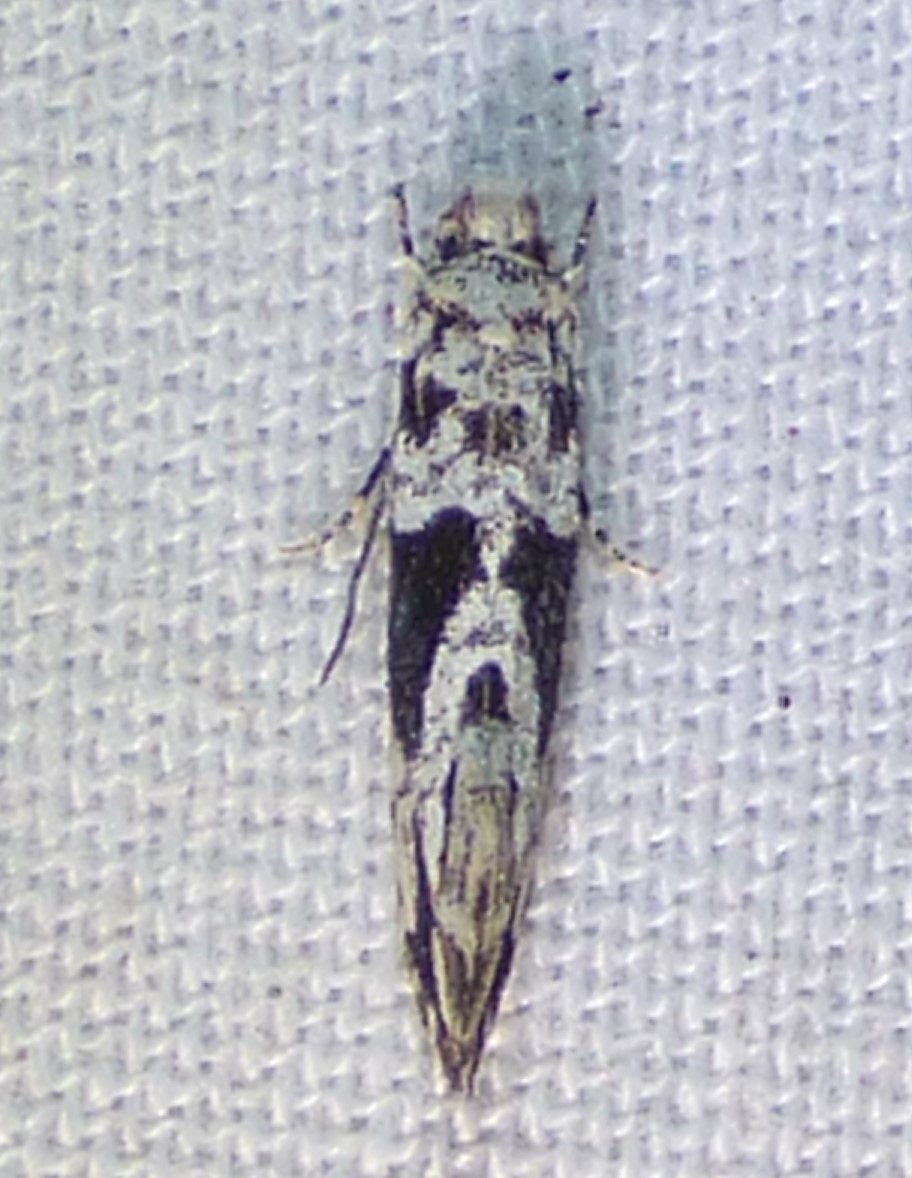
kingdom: Animalia
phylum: Arthropoda
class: Insecta
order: Lepidoptera
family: Tineidae
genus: Nemapogon
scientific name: Nemapogon angulifasciella
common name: Black-patched nemapogon
